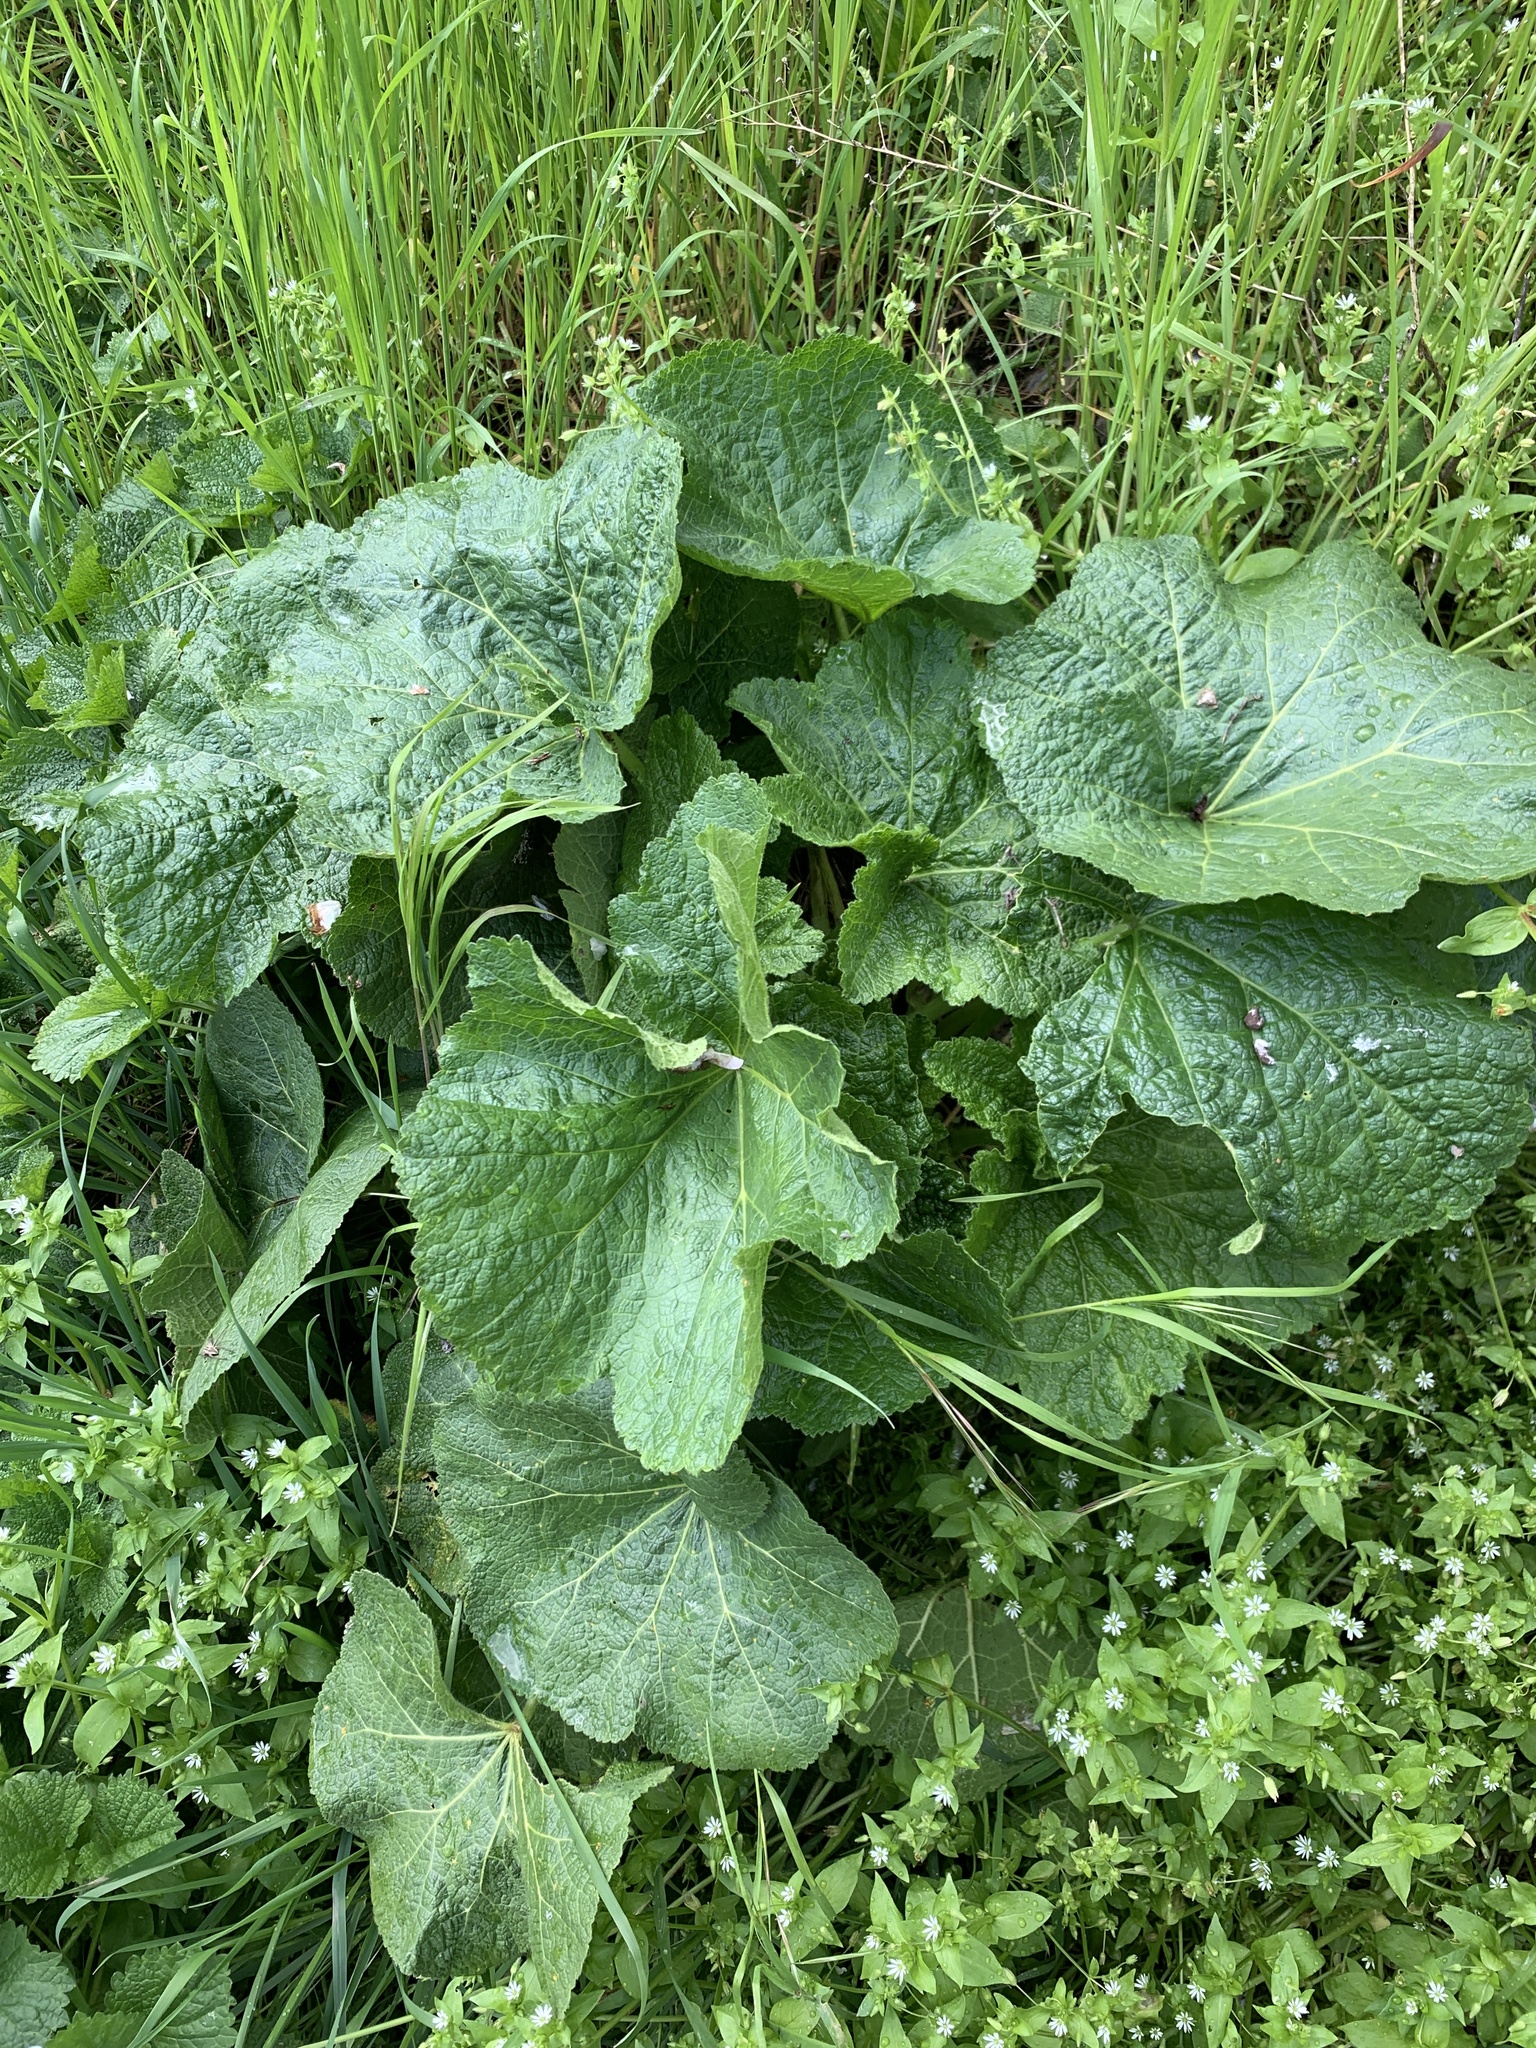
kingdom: Plantae
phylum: Tracheophyta
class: Magnoliopsida
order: Malvales
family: Malvaceae
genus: Alcea
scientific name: Alcea rosea
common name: Hollyhock
